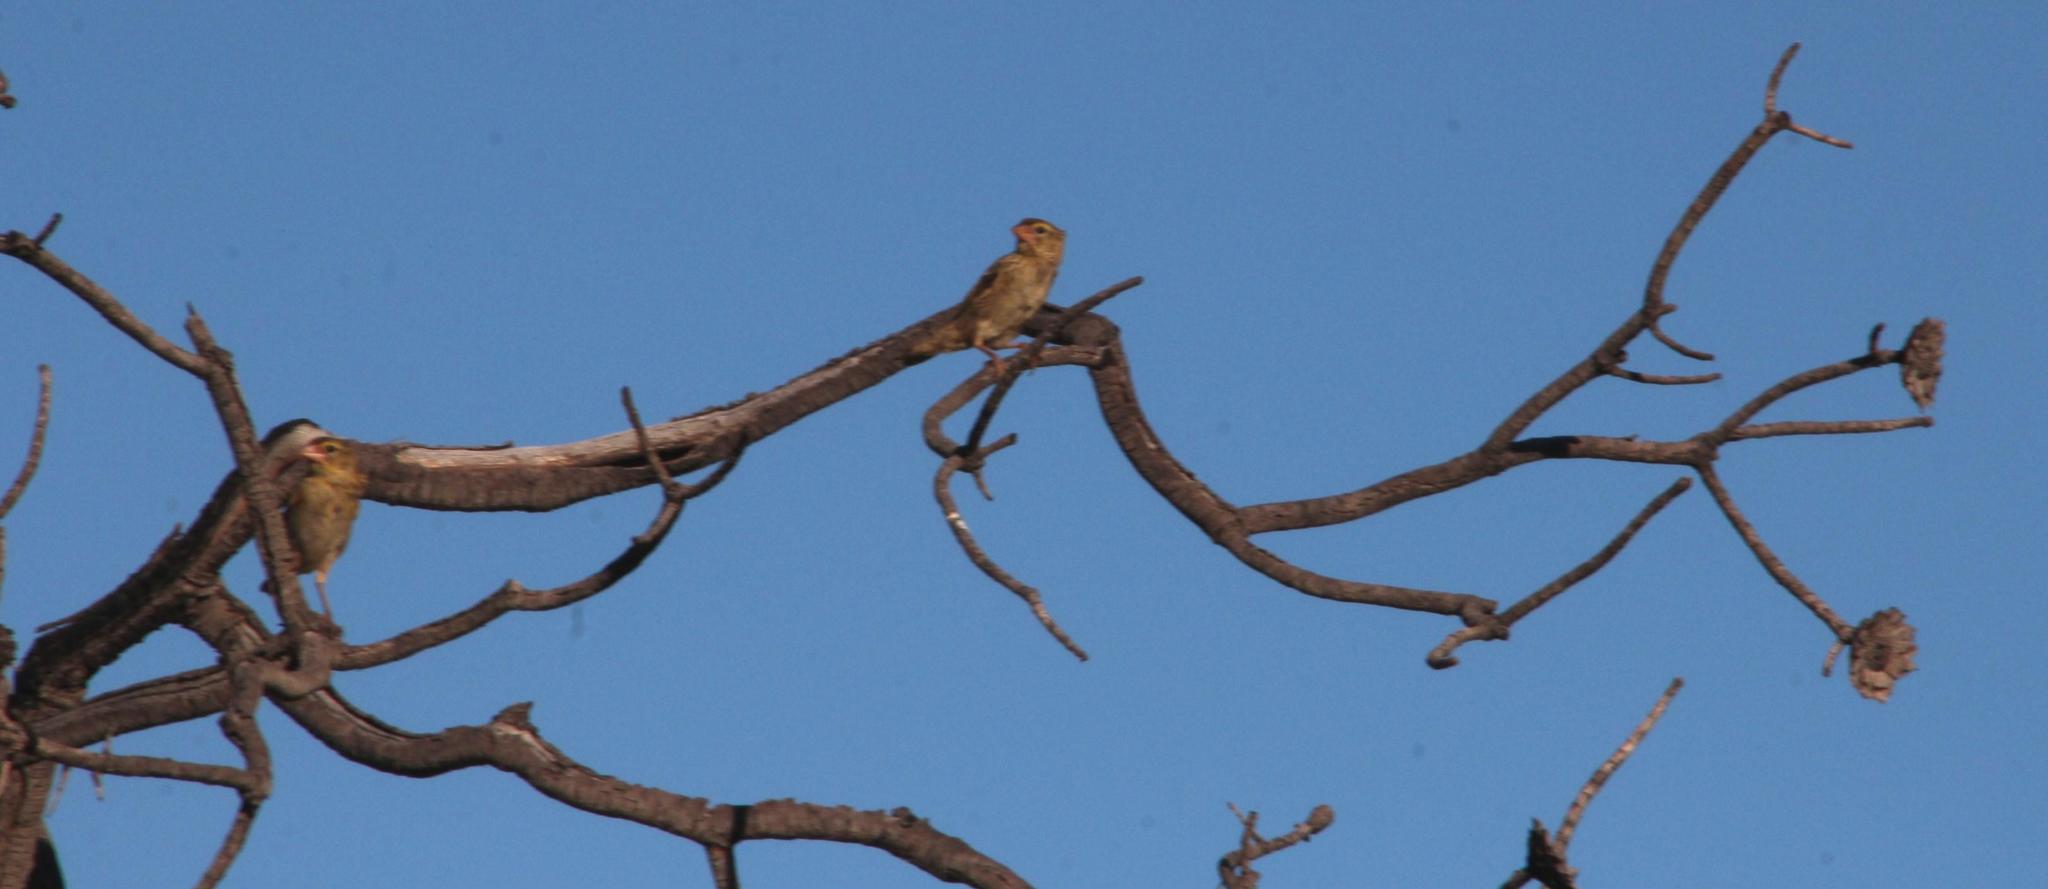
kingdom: Animalia
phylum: Chordata
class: Aves
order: Passeriformes
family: Ploceidae
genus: Quelea
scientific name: Quelea quelea
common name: Red-billed quelea
